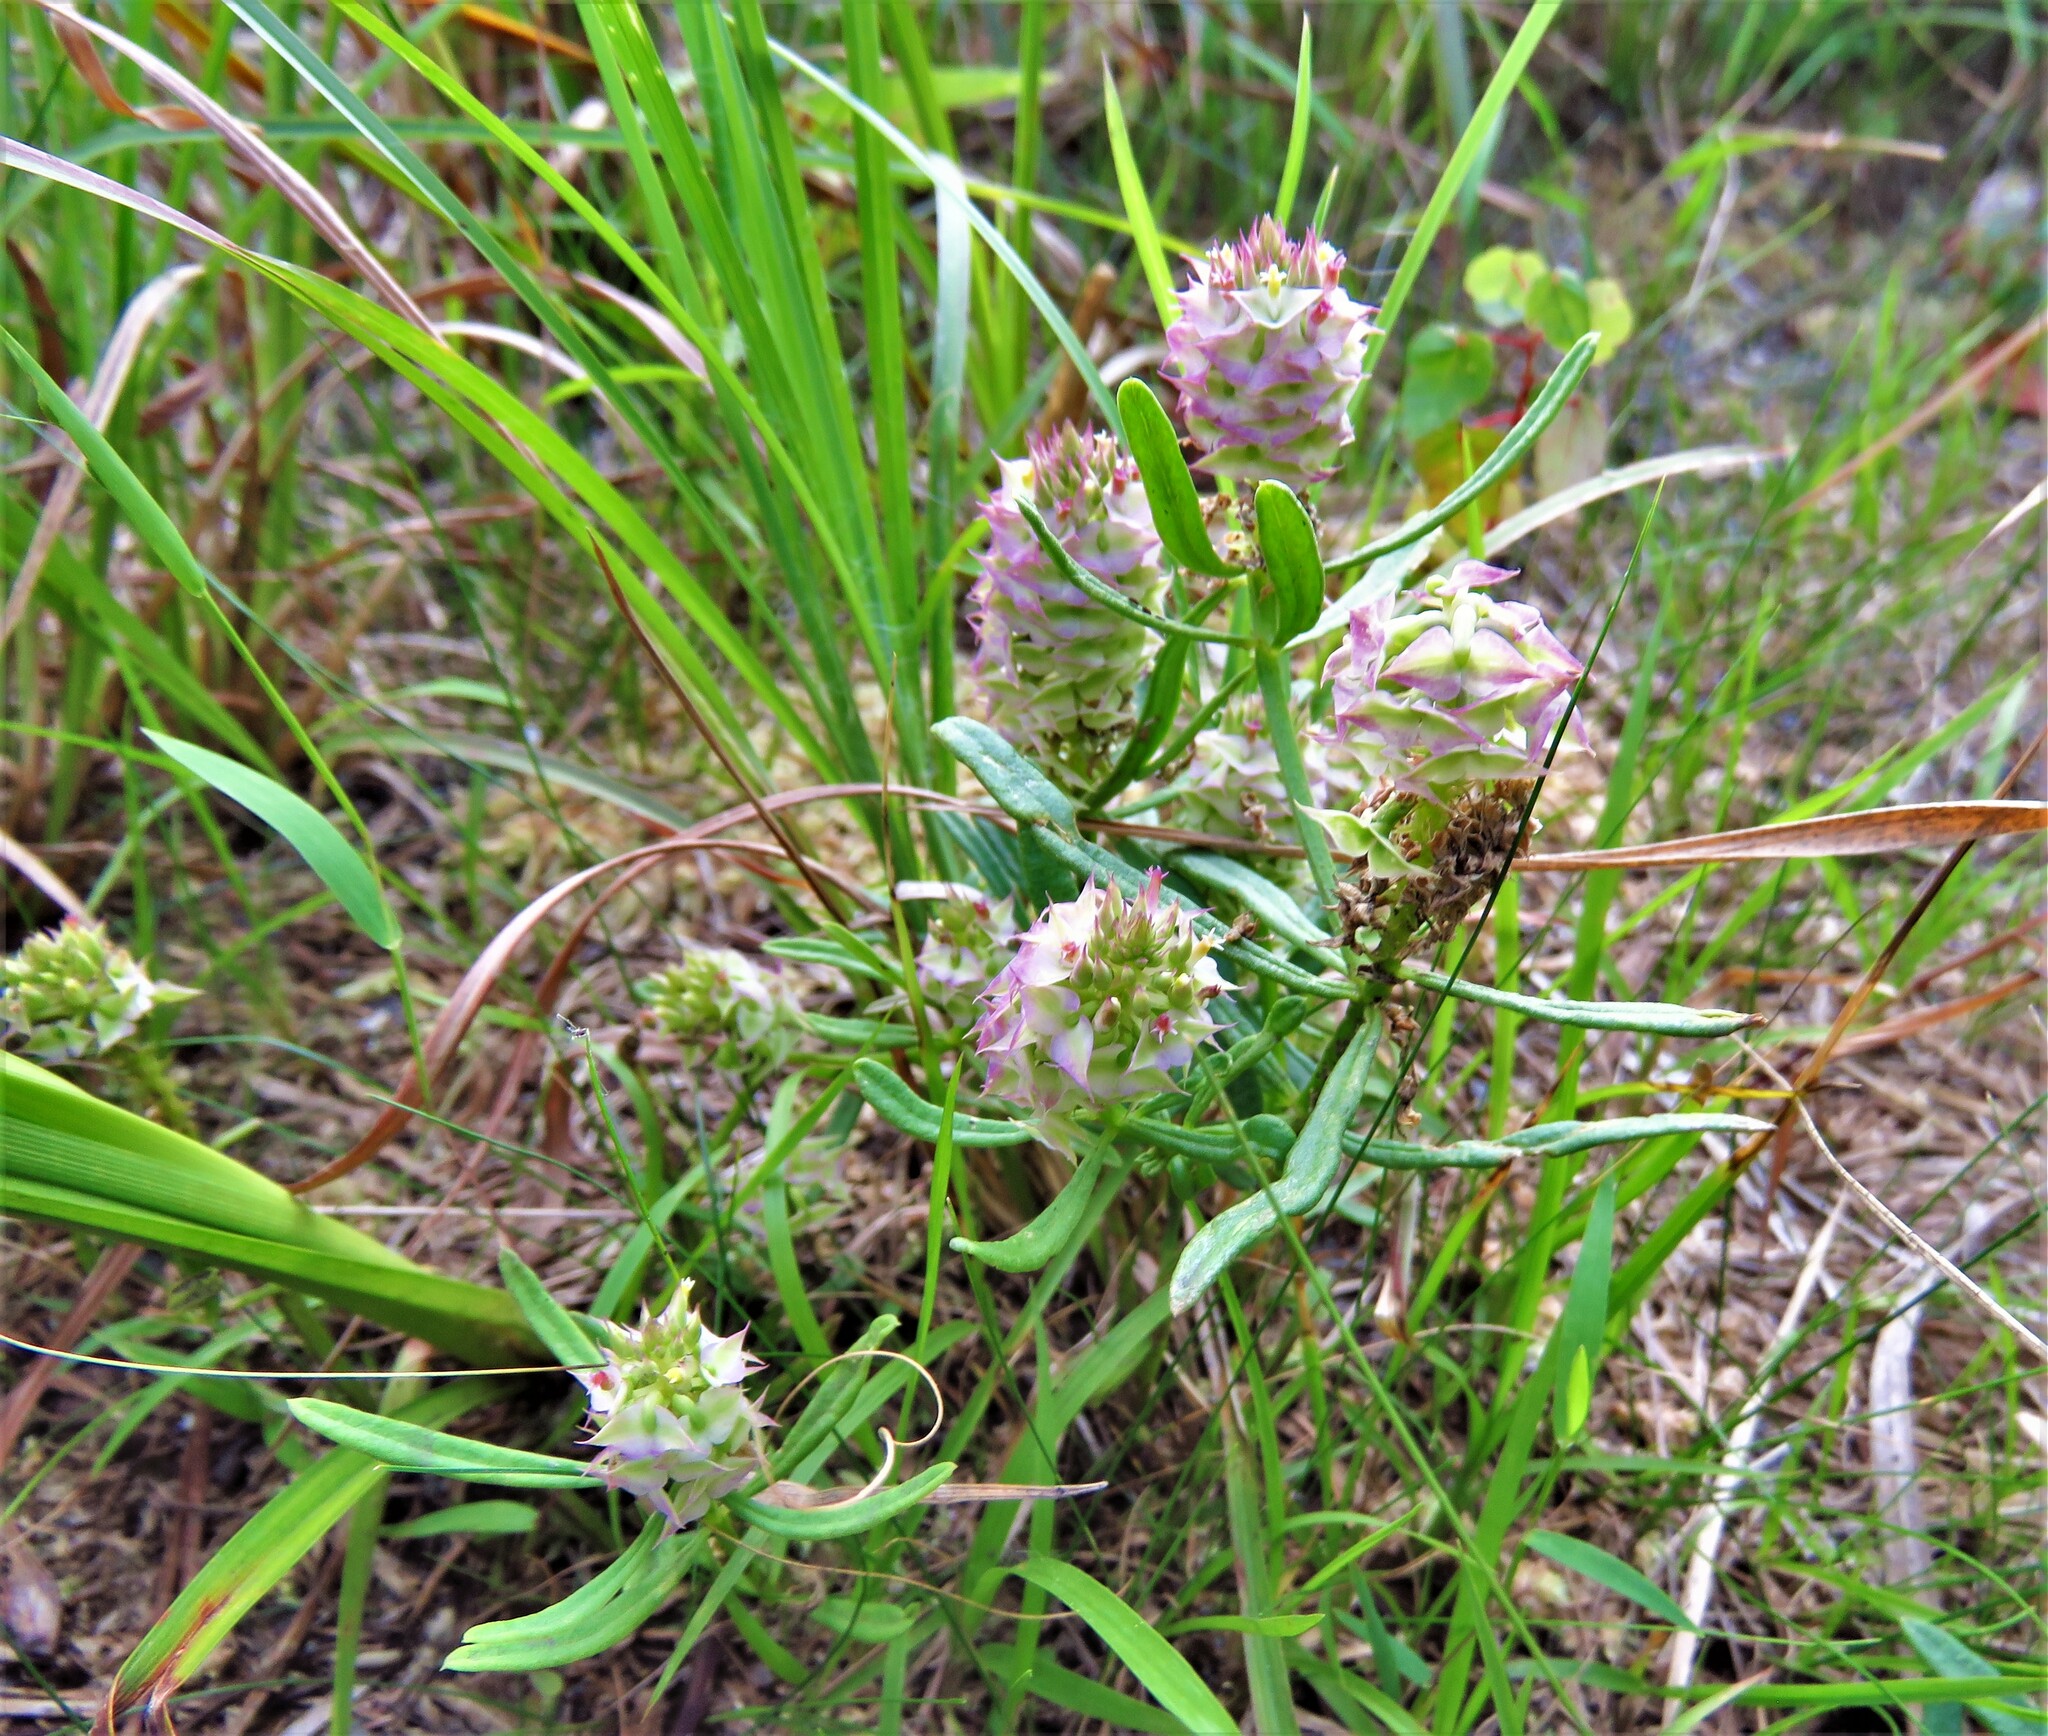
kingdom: Plantae
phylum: Tracheophyta
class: Magnoliopsida
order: Fabales
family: Polygalaceae
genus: Polygala
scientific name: Polygala cruciata
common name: Drumheads
